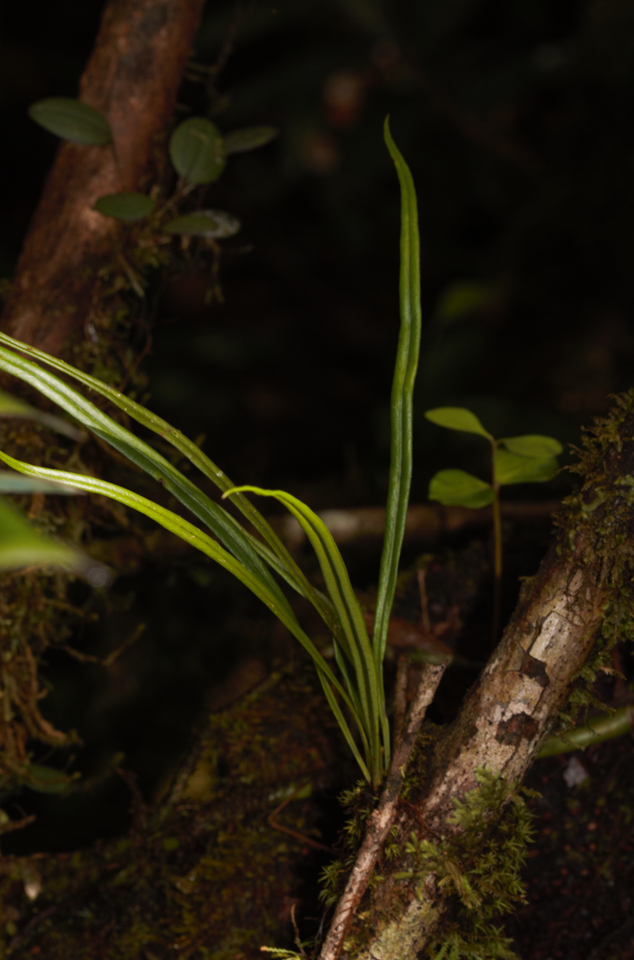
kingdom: Plantae
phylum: Tracheophyta
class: Polypodiopsida
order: Polypodiales
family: Dryopteridaceae
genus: Elaphoglossum
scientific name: Elaphoglossum glabellum
